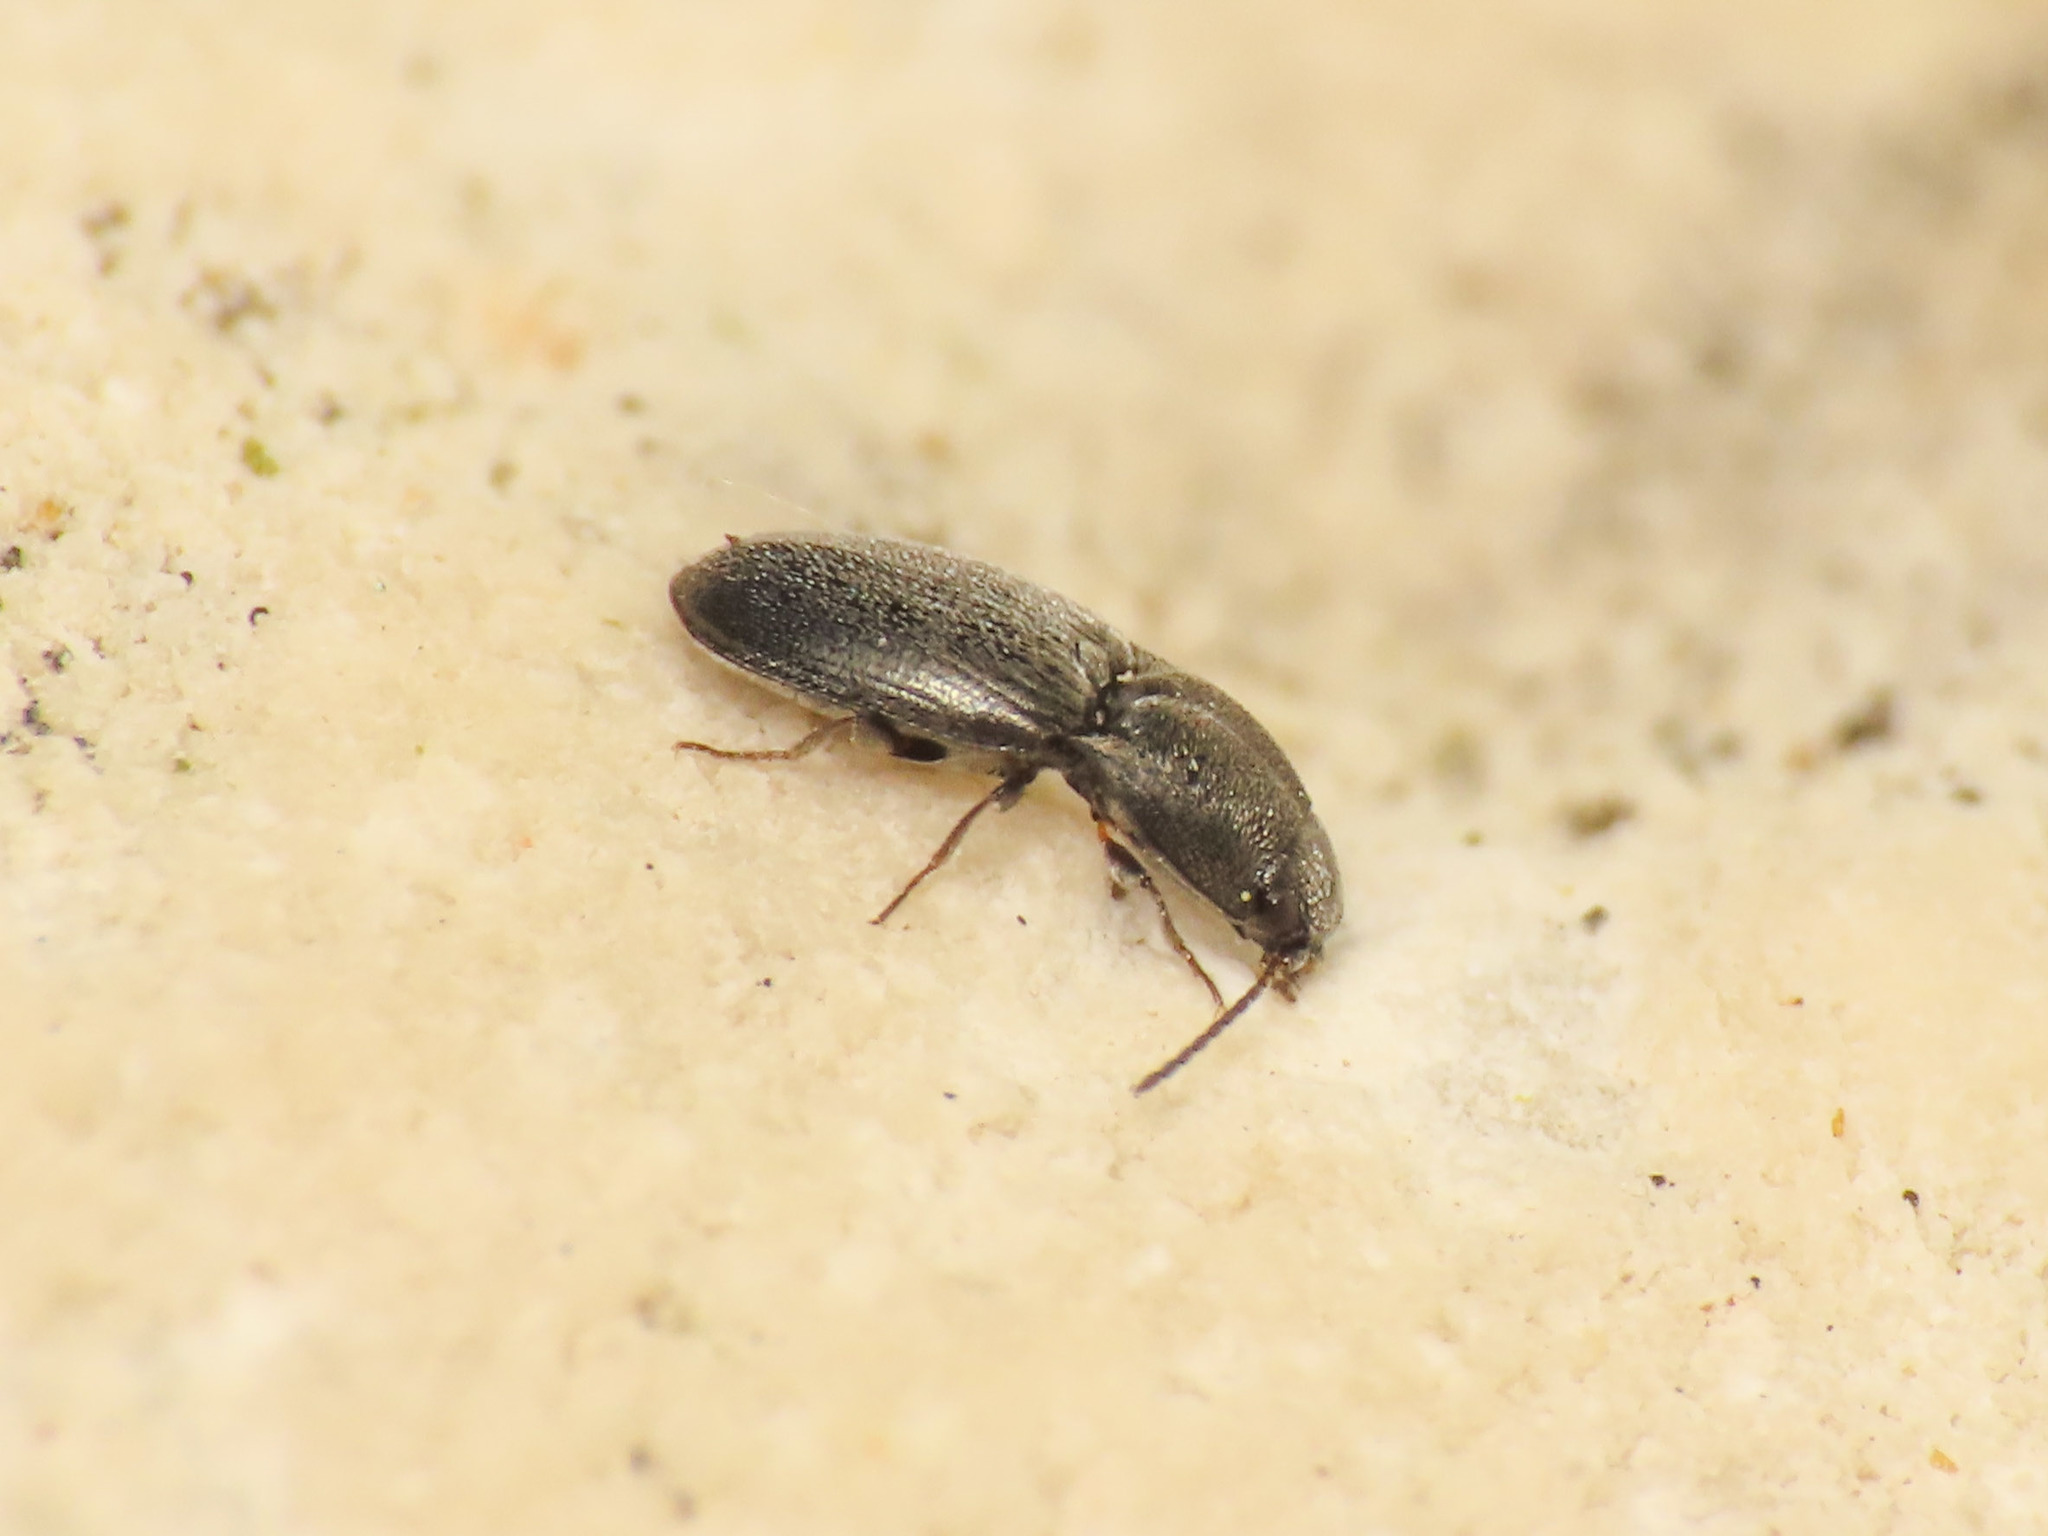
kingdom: Animalia
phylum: Arthropoda
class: Insecta
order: Coleoptera
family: Elateridae
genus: Zorochros
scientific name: Zorochros meridionalis
